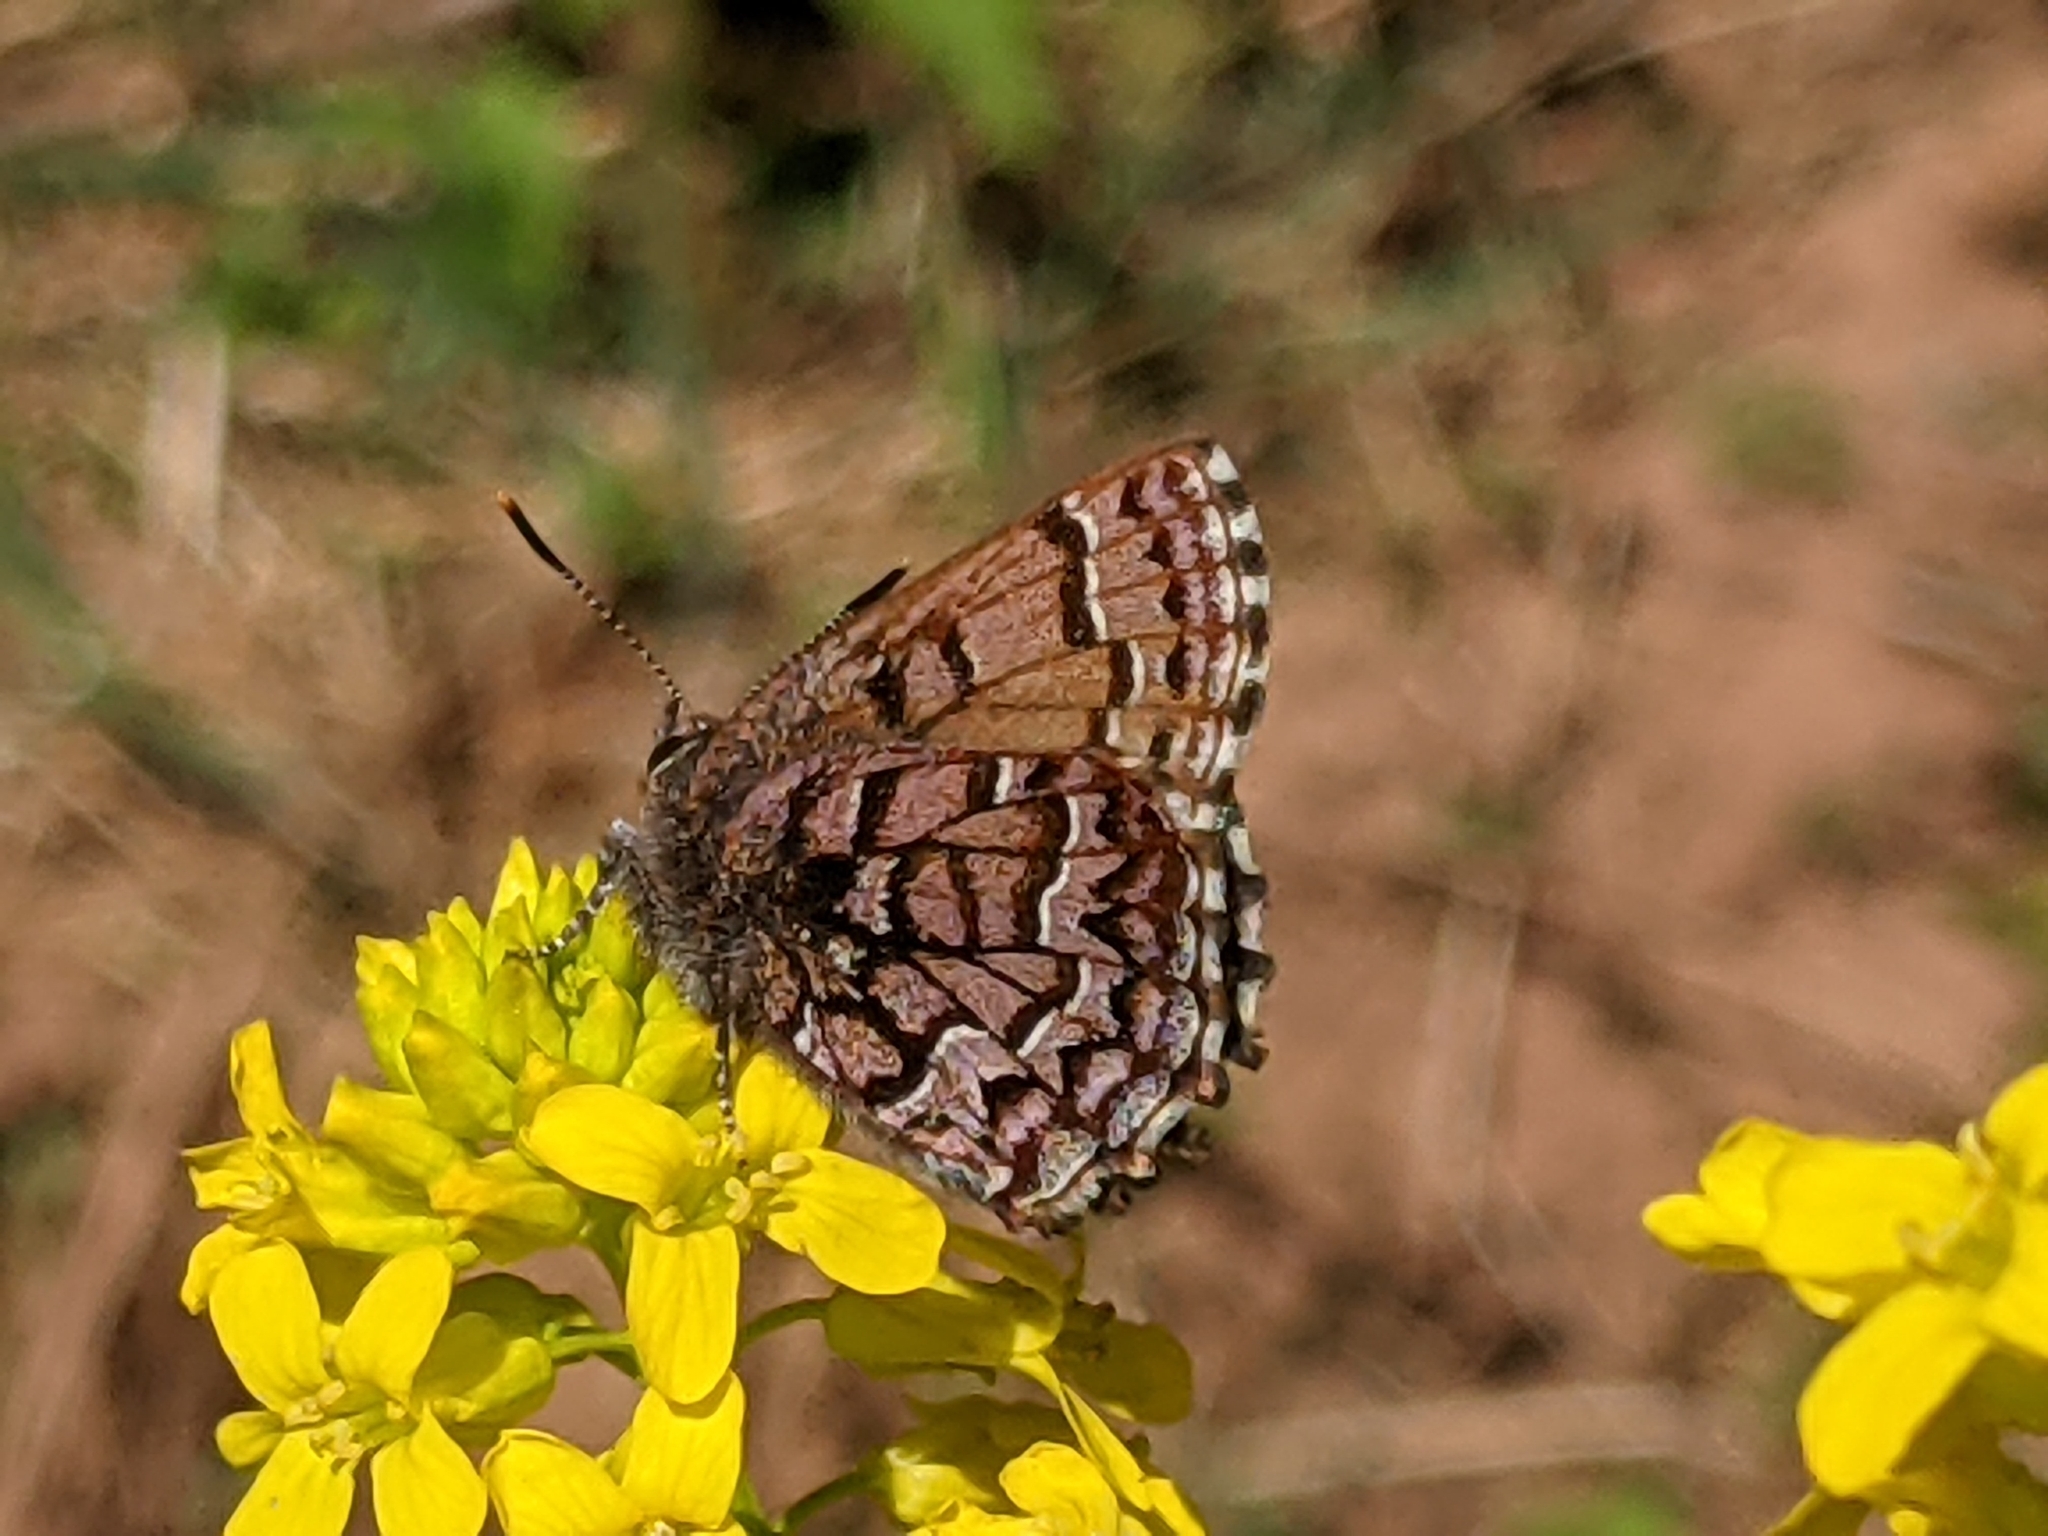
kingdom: Animalia
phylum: Arthropoda
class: Insecta
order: Lepidoptera
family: Lycaenidae
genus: Incisalia
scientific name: Incisalia niphon
